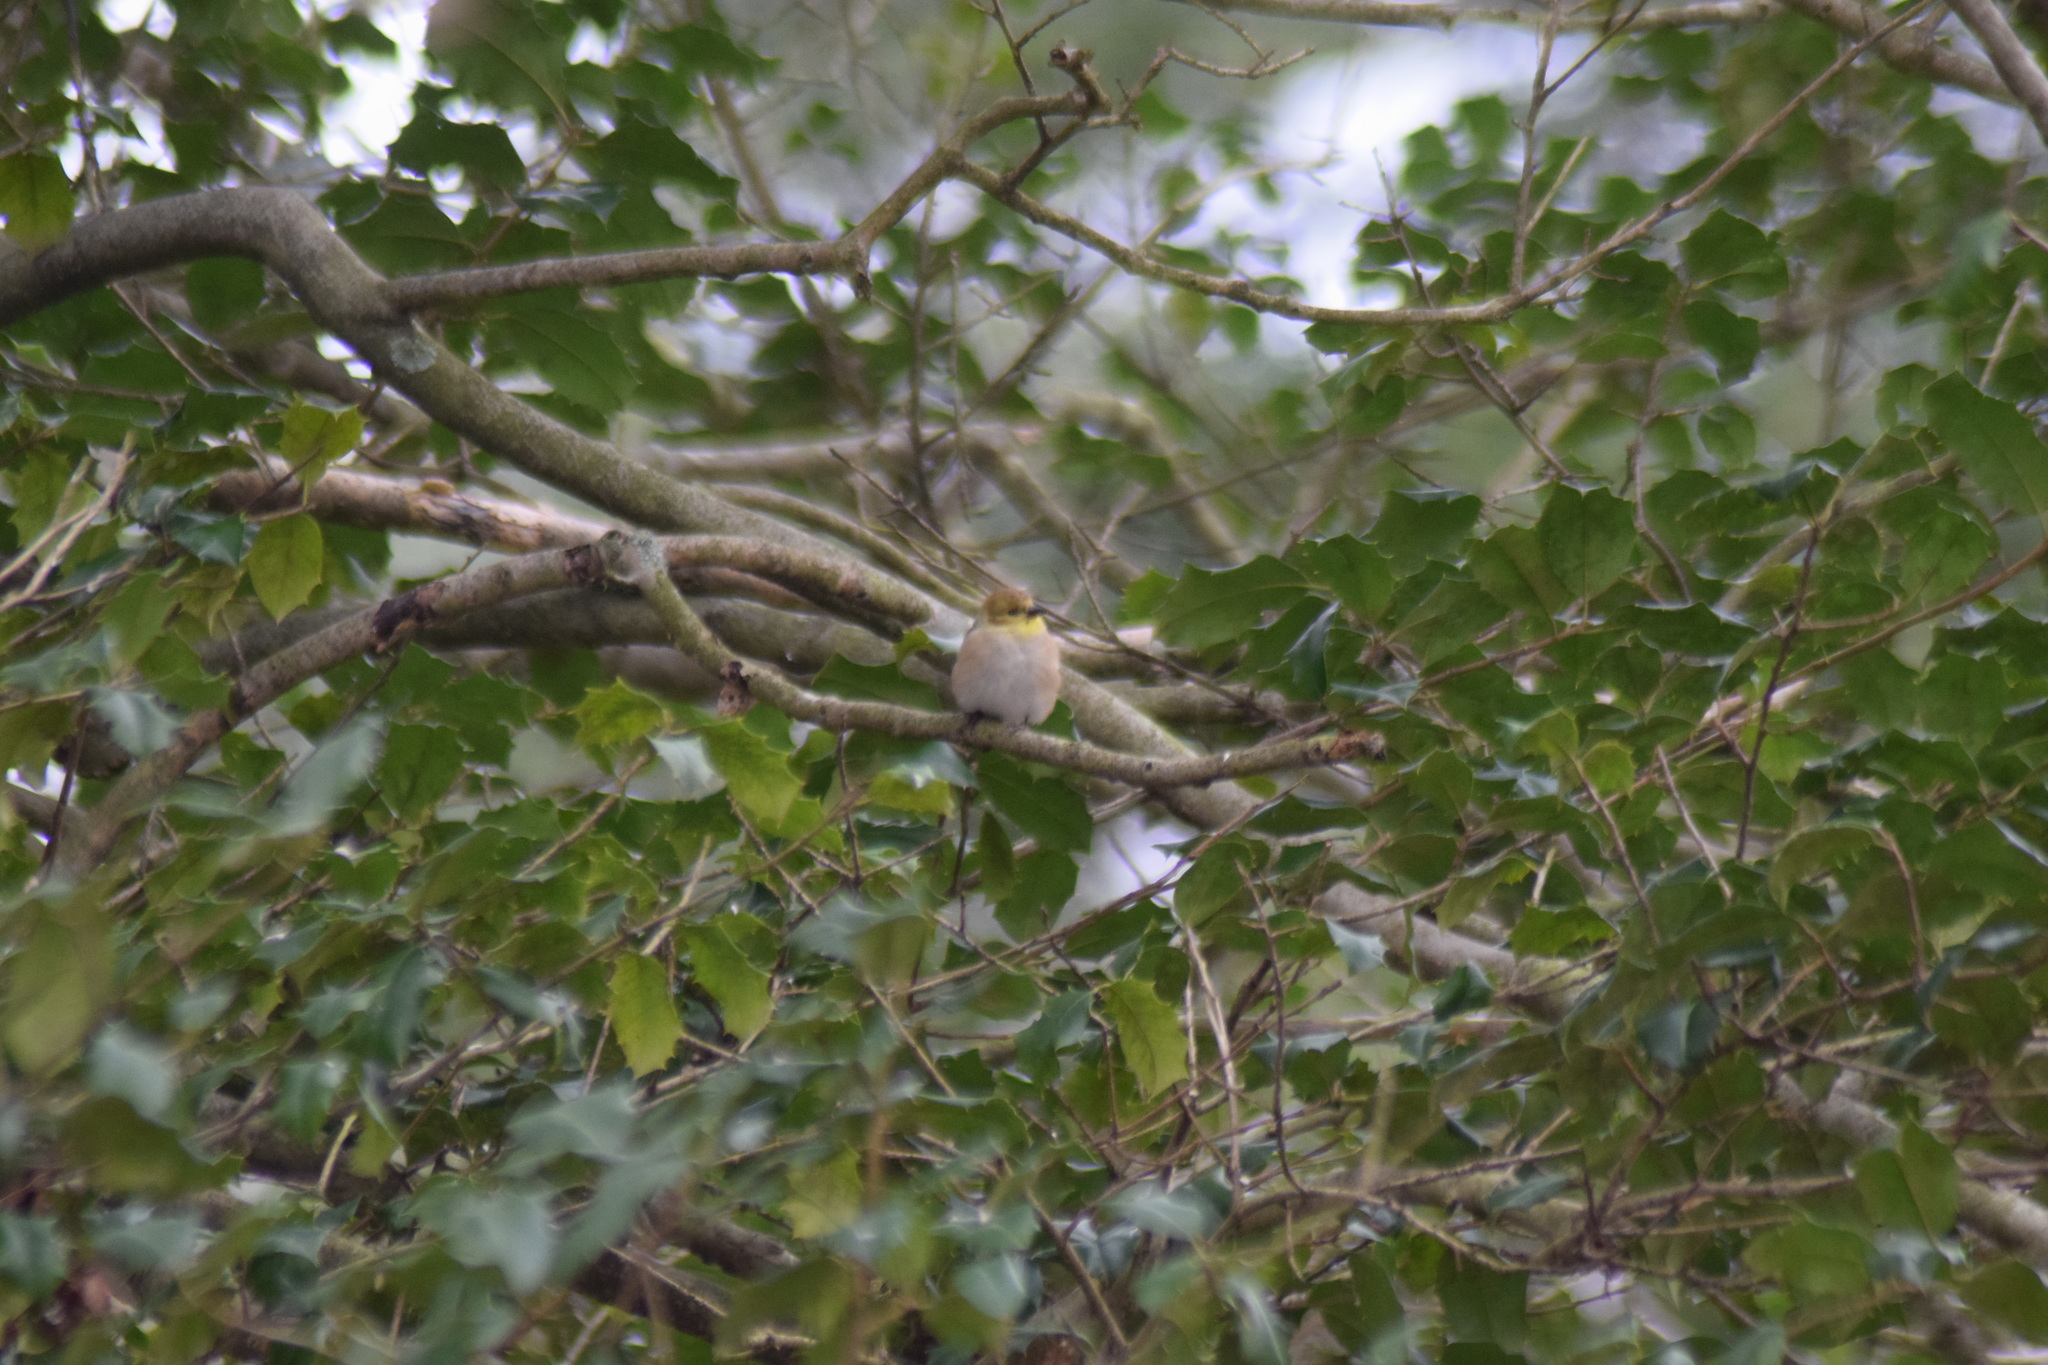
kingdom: Animalia
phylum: Chordata
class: Aves
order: Passeriformes
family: Fringillidae
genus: Spinus
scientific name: Spinus tristis
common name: American goldfinch
